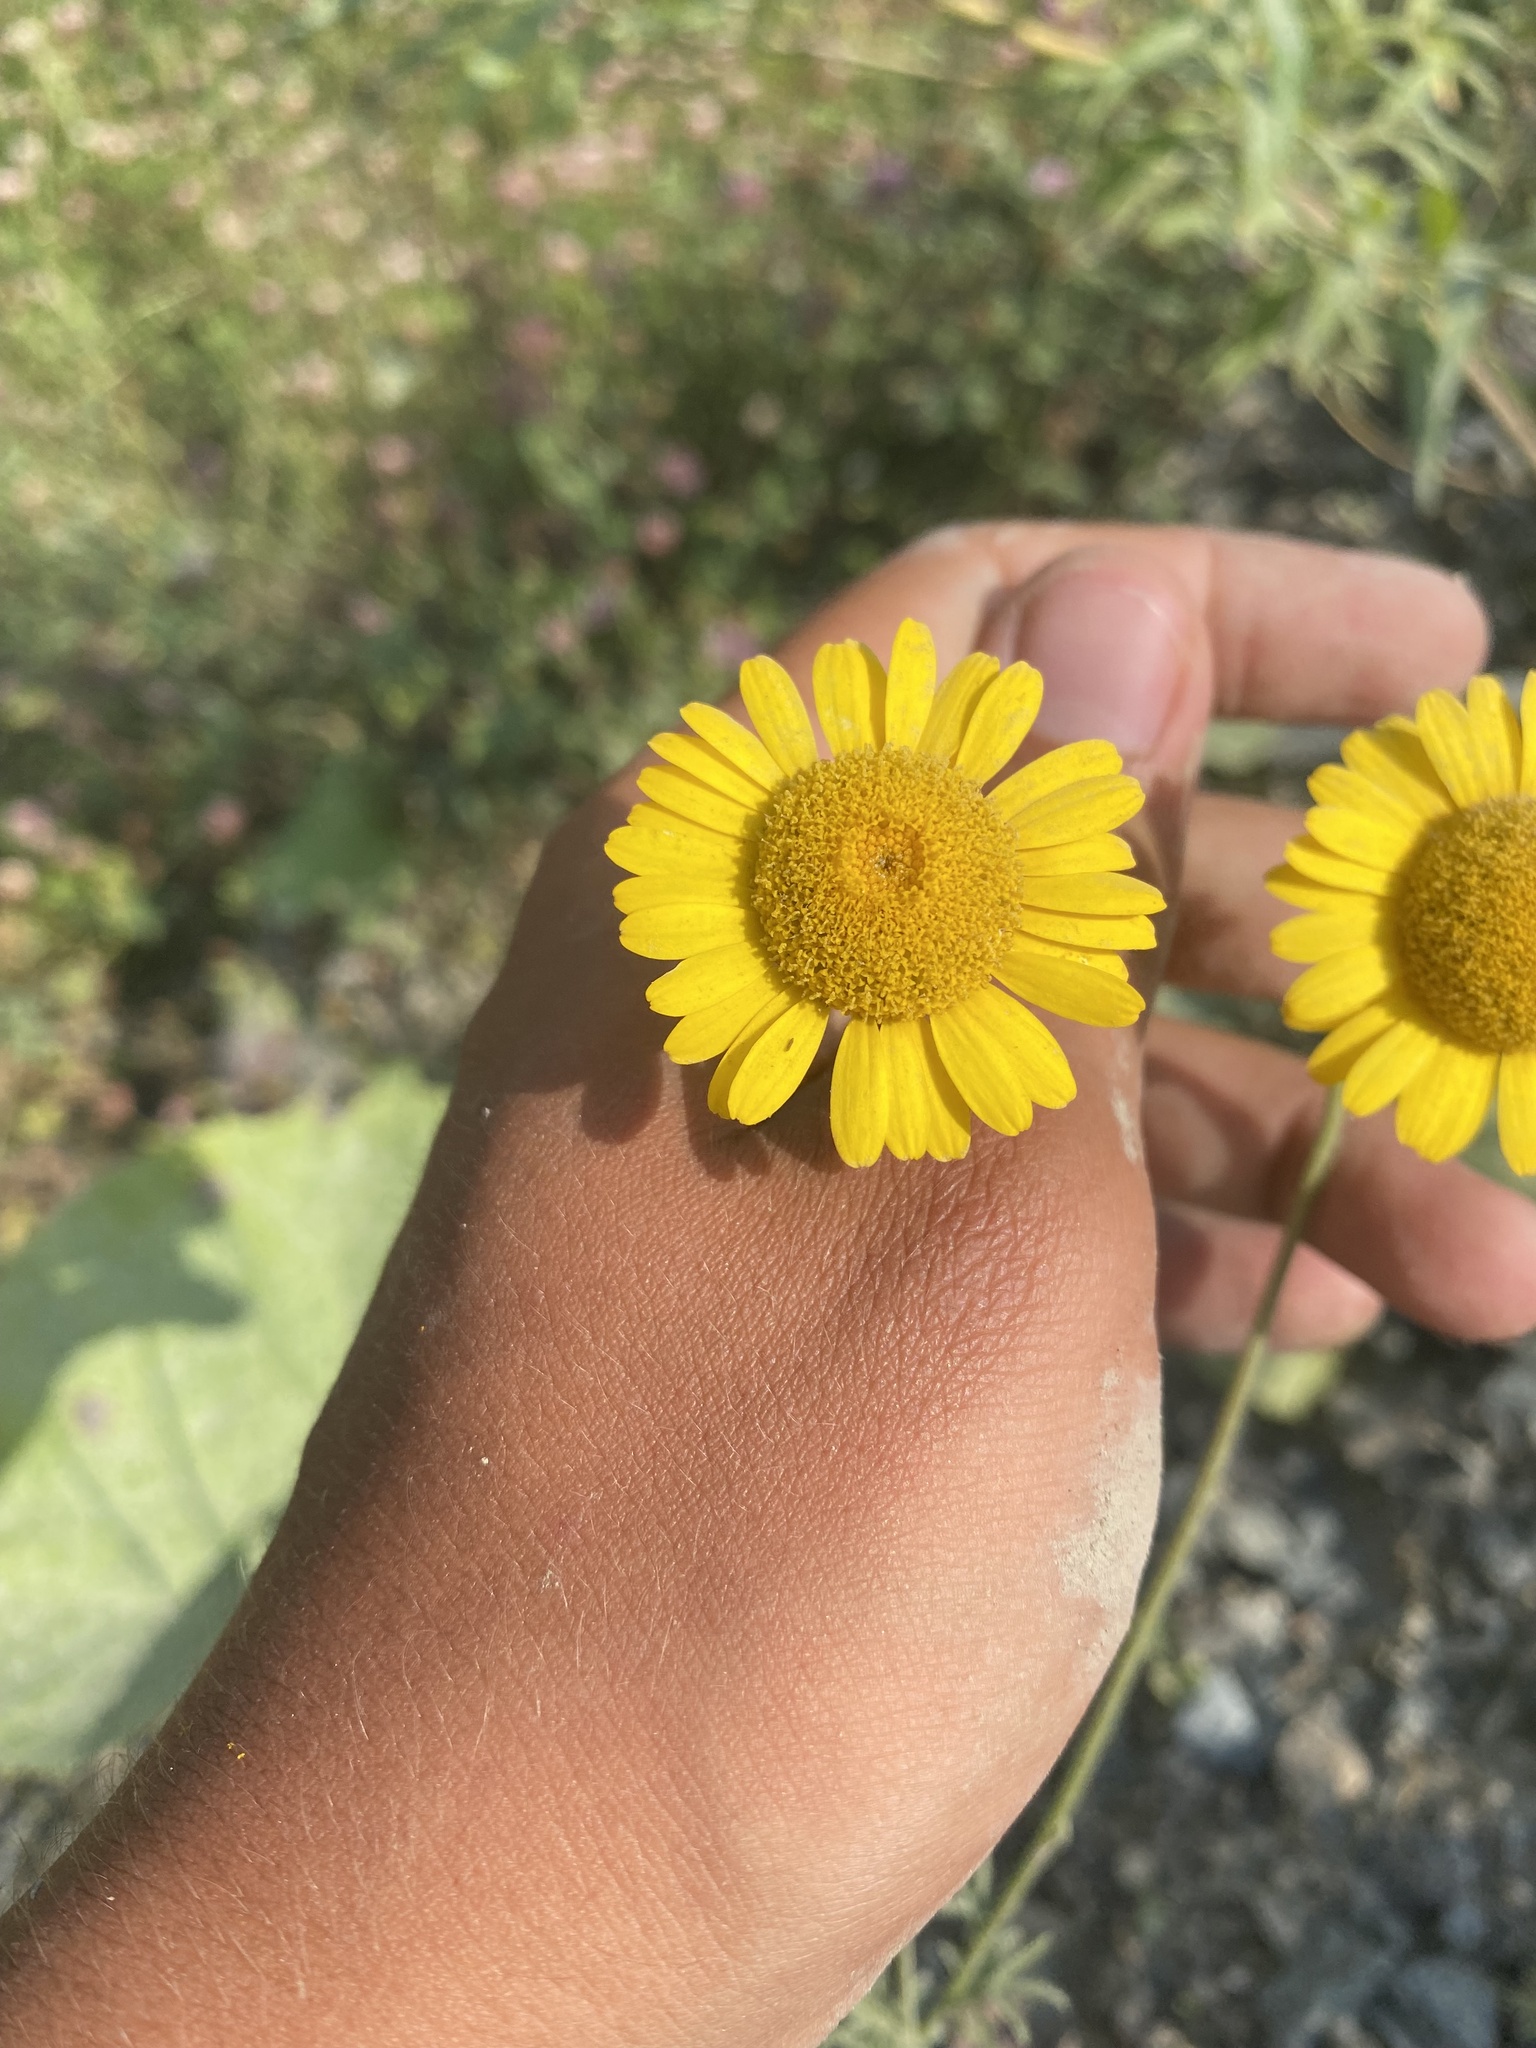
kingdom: Plantae
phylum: Tracheophyta
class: Magnoliopsida
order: Asterales
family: Asteraceae
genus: Cota
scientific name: Cota tinctoria
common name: Golden chamomile
